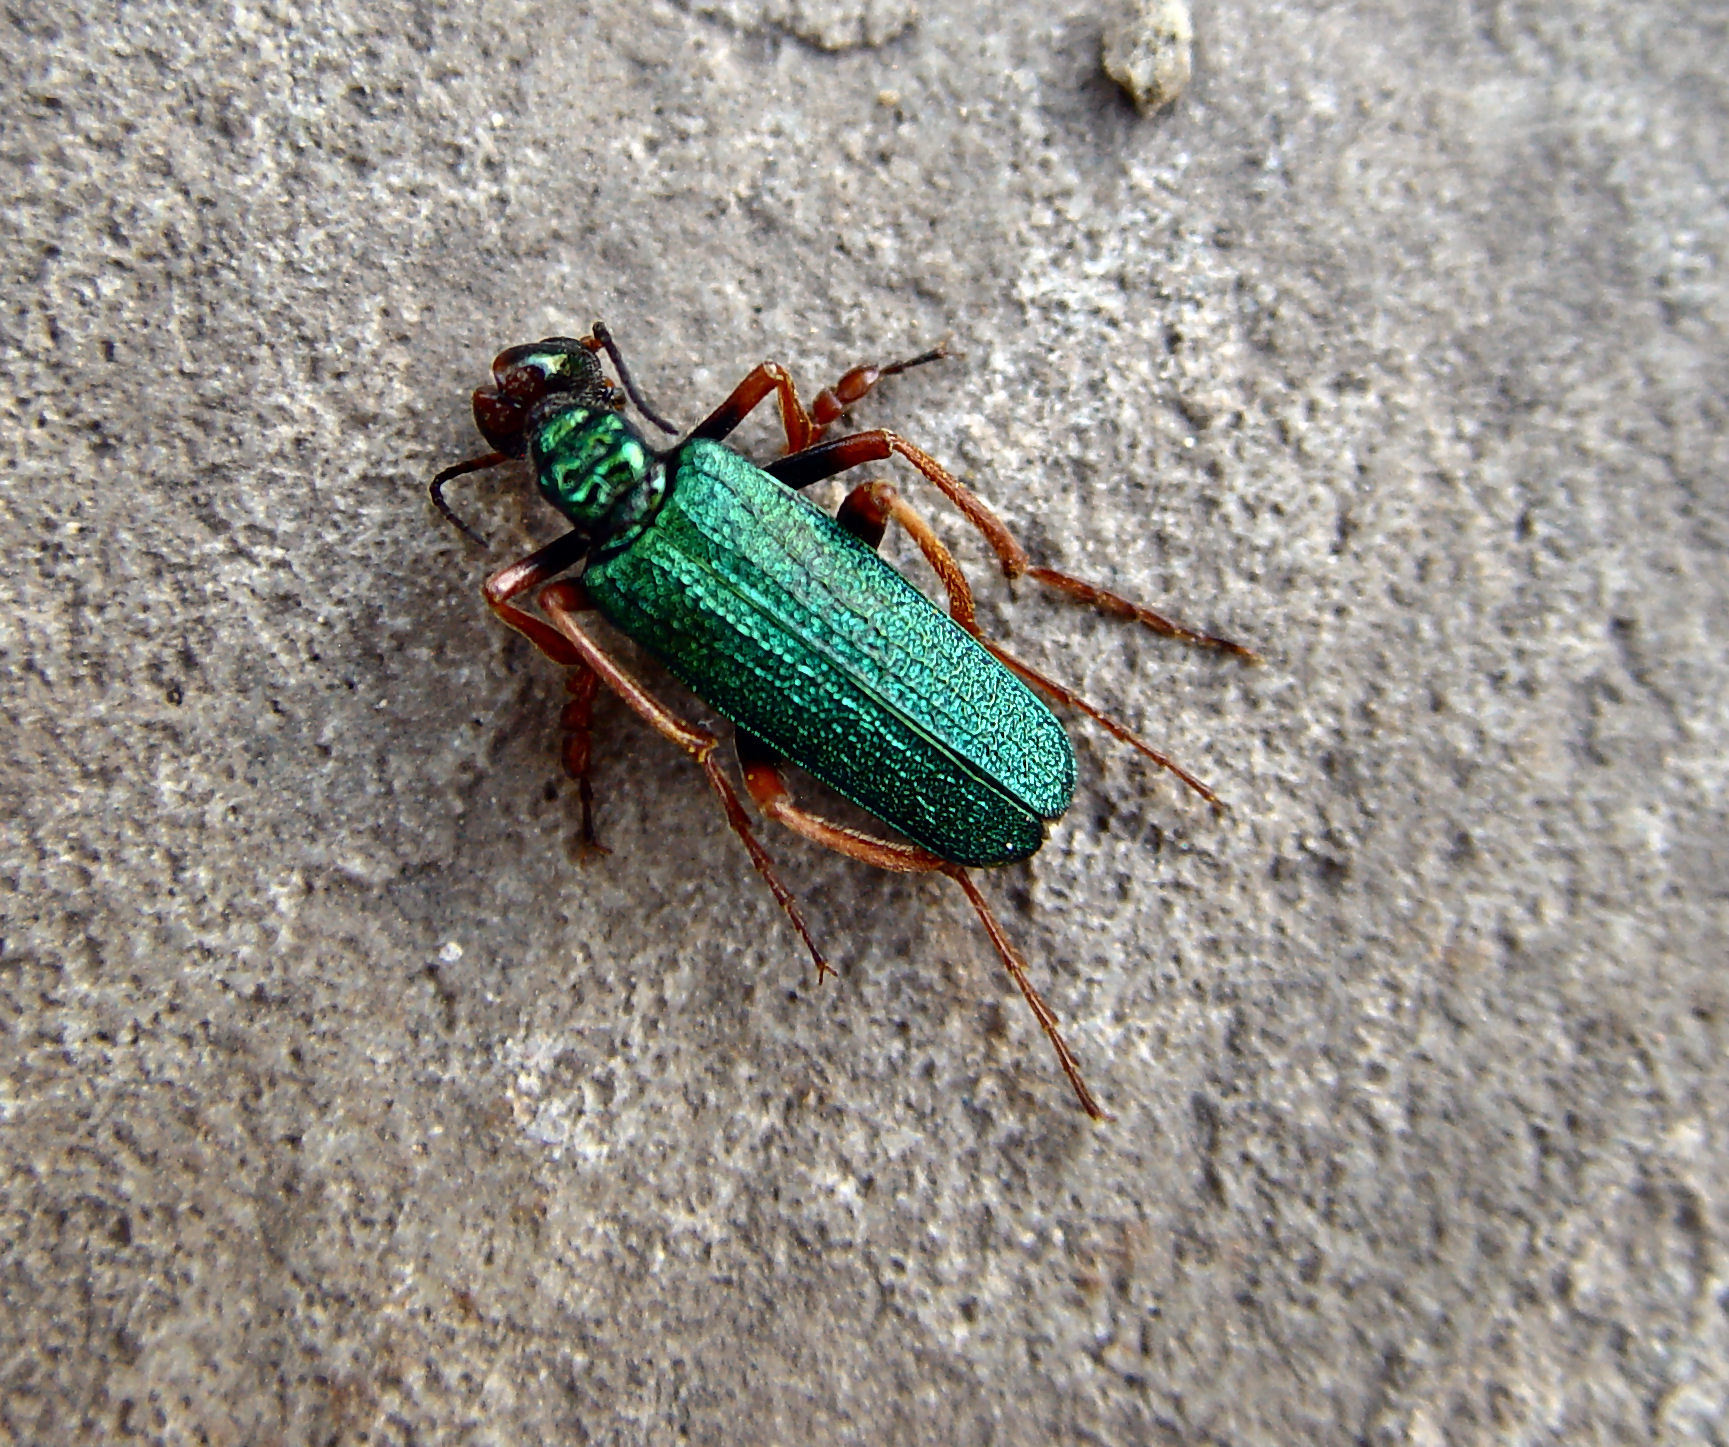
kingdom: Animalia
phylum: Arthropoda
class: Insecta
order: Coleoptera
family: Meloidae
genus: Eupompha
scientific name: Eupompha fissiceps
